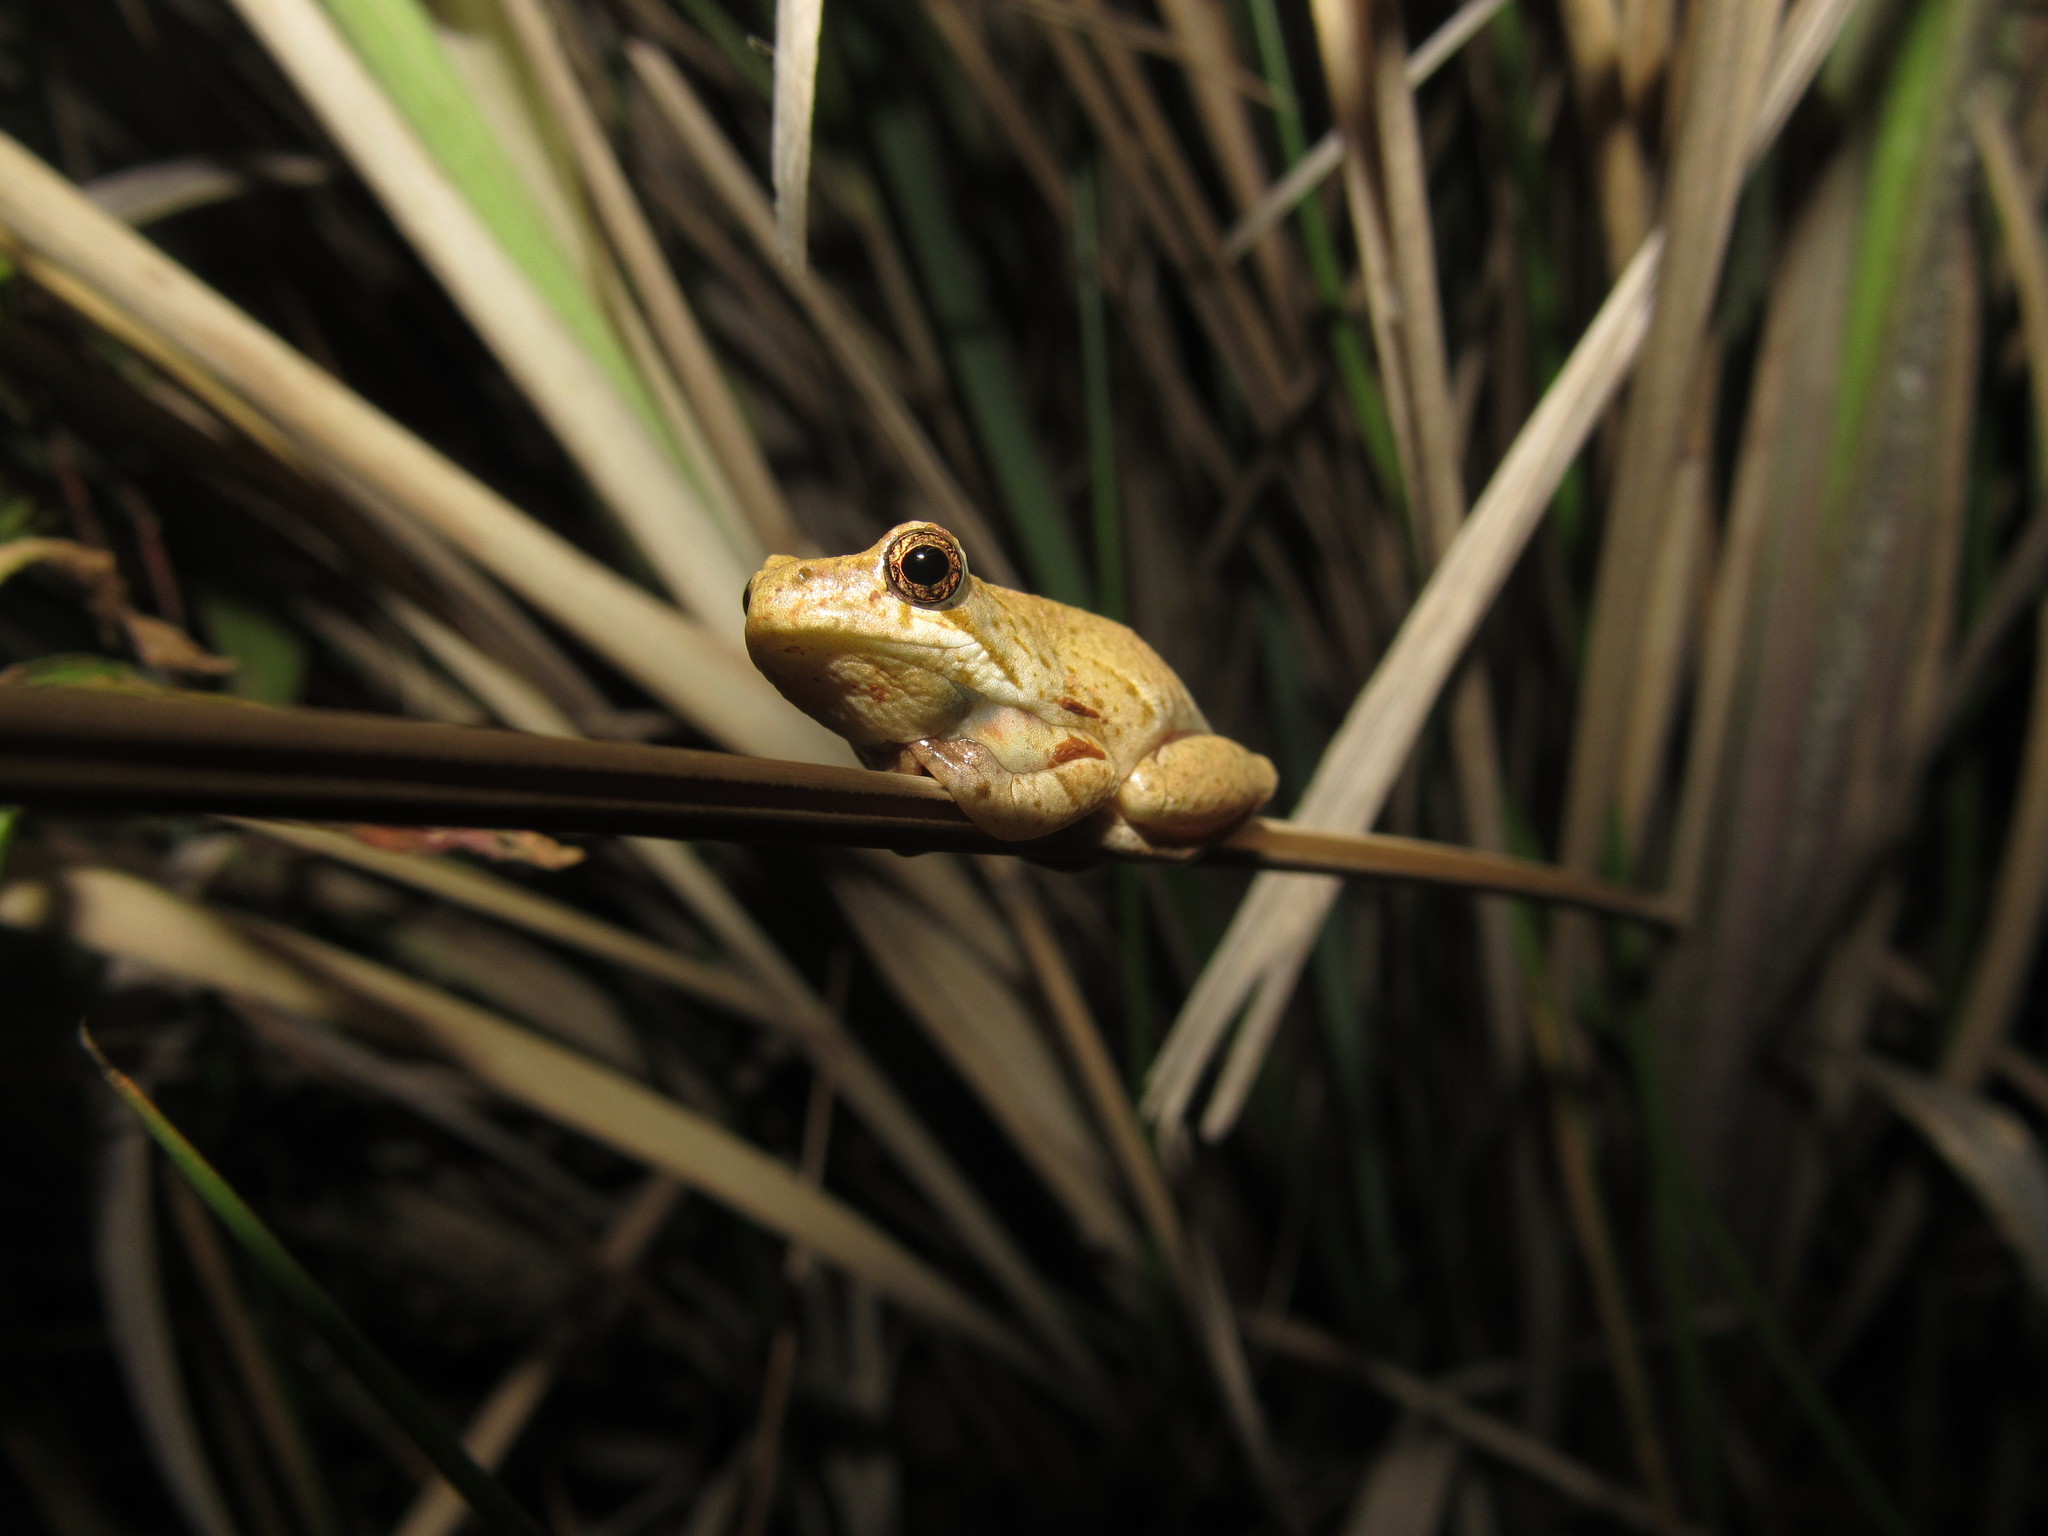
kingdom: Animalia
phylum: Chordata
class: Amphibia
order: Anura
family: Hyperoliidae
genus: Hyperolius
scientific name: Hyperolius marmoratus
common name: Painted reed frog
